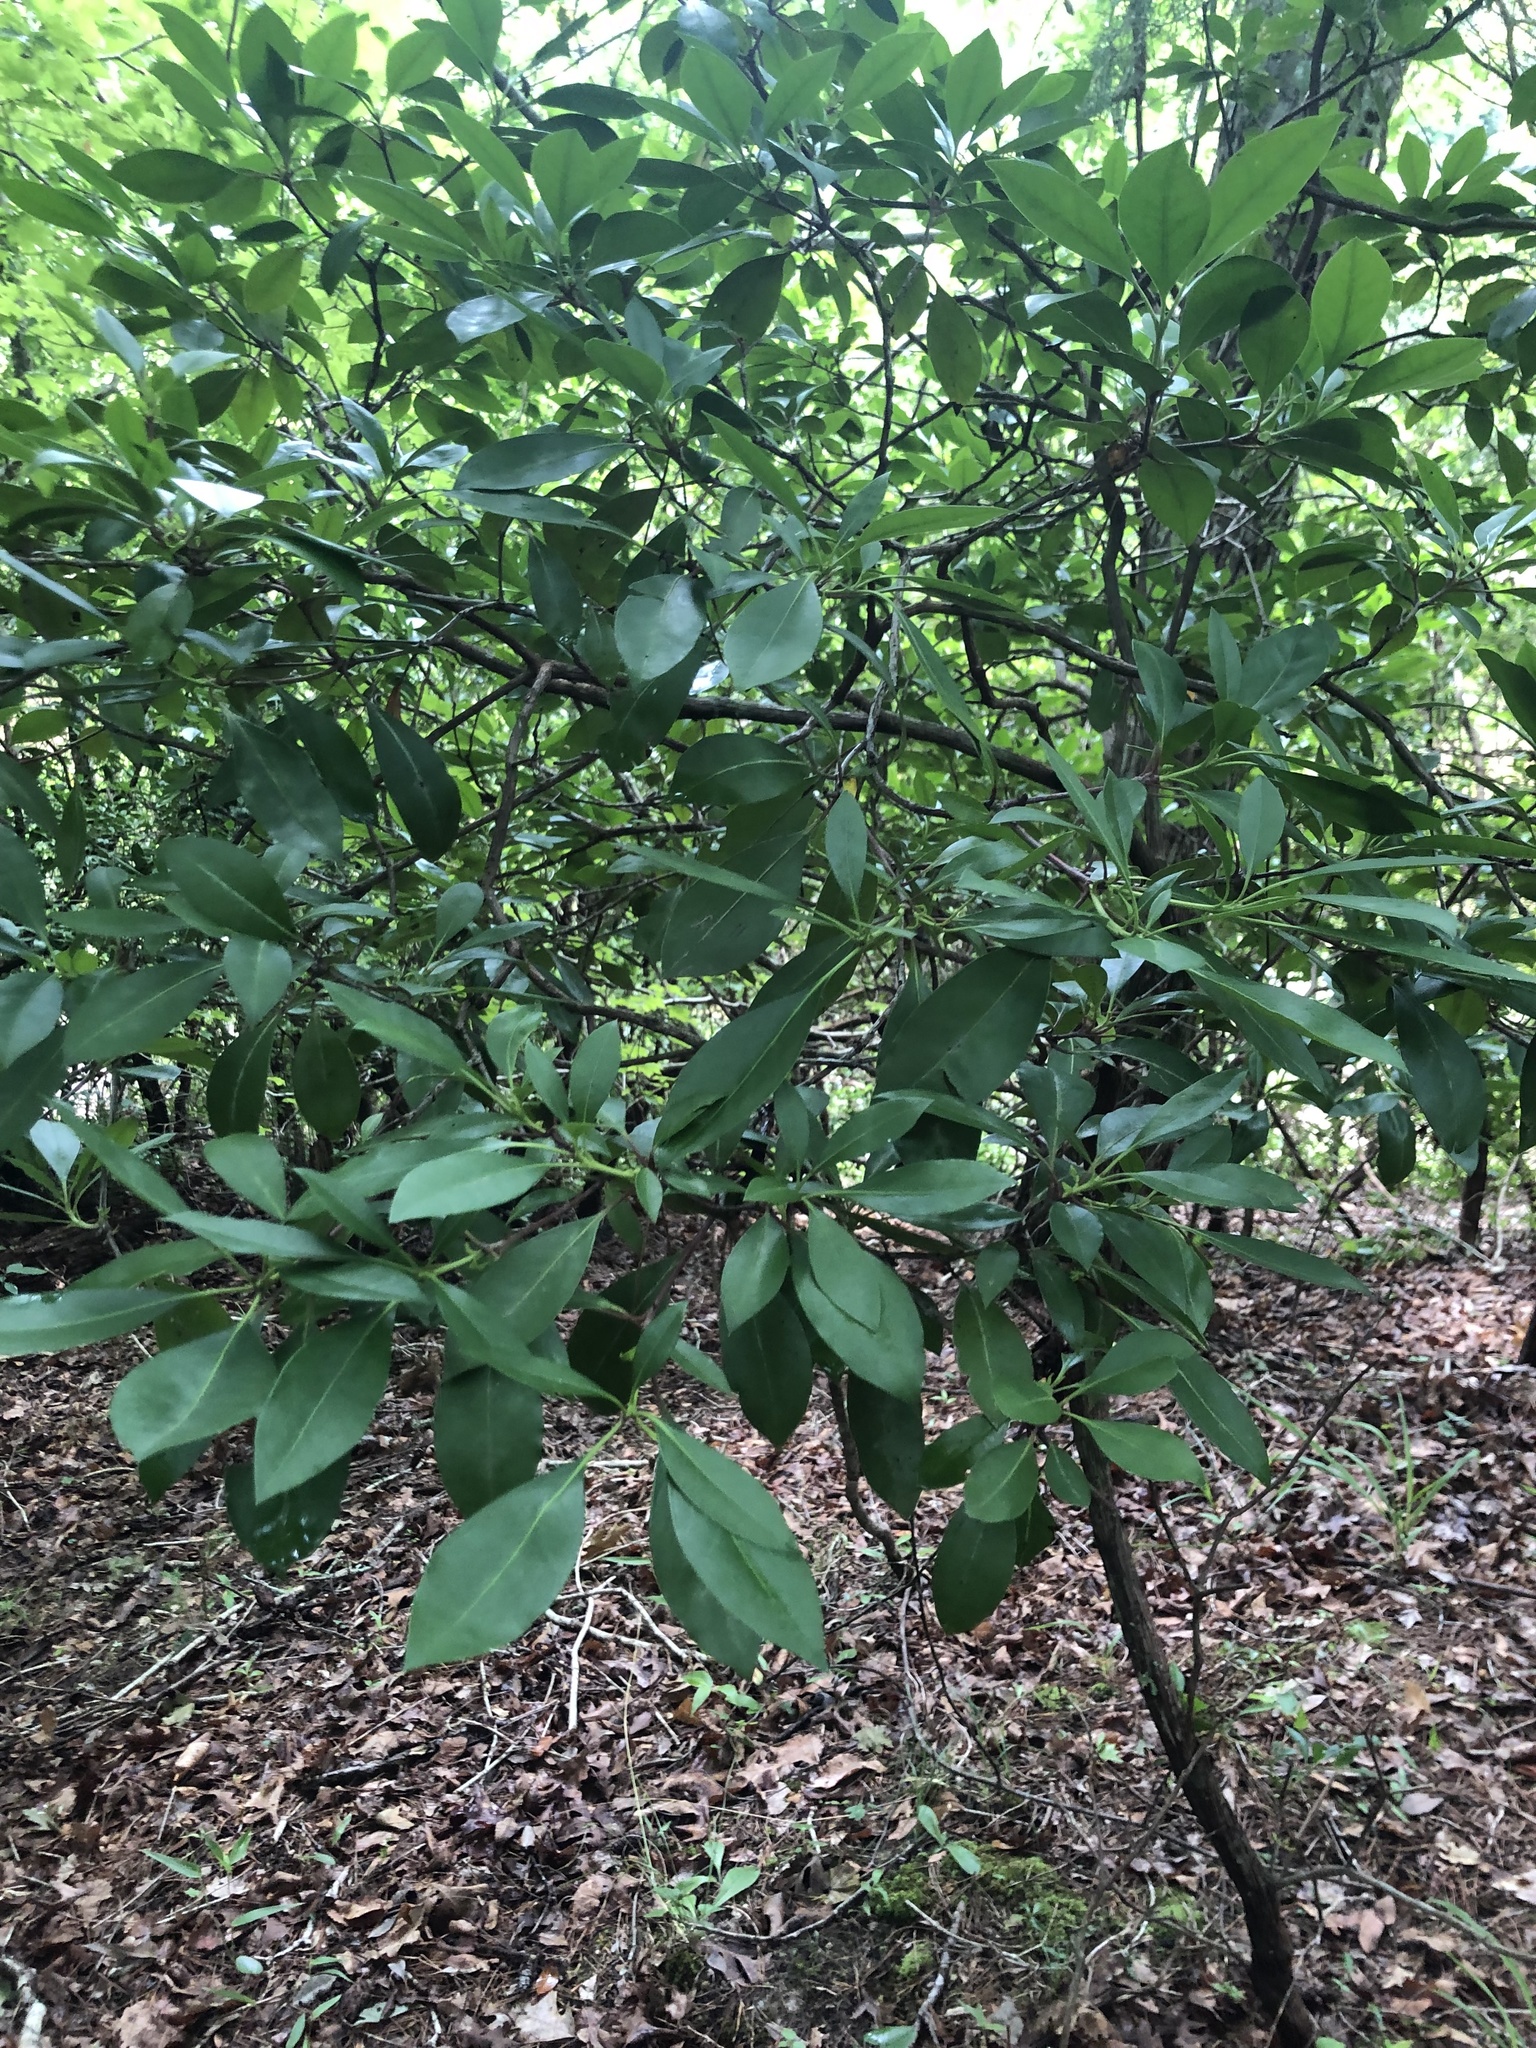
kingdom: Plantae
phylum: Tracheophyta
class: Magnoliopsida
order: Ericales
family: Ericaceae
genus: Kalmia
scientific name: Kalmia latifolia
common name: Mountain-laurel
